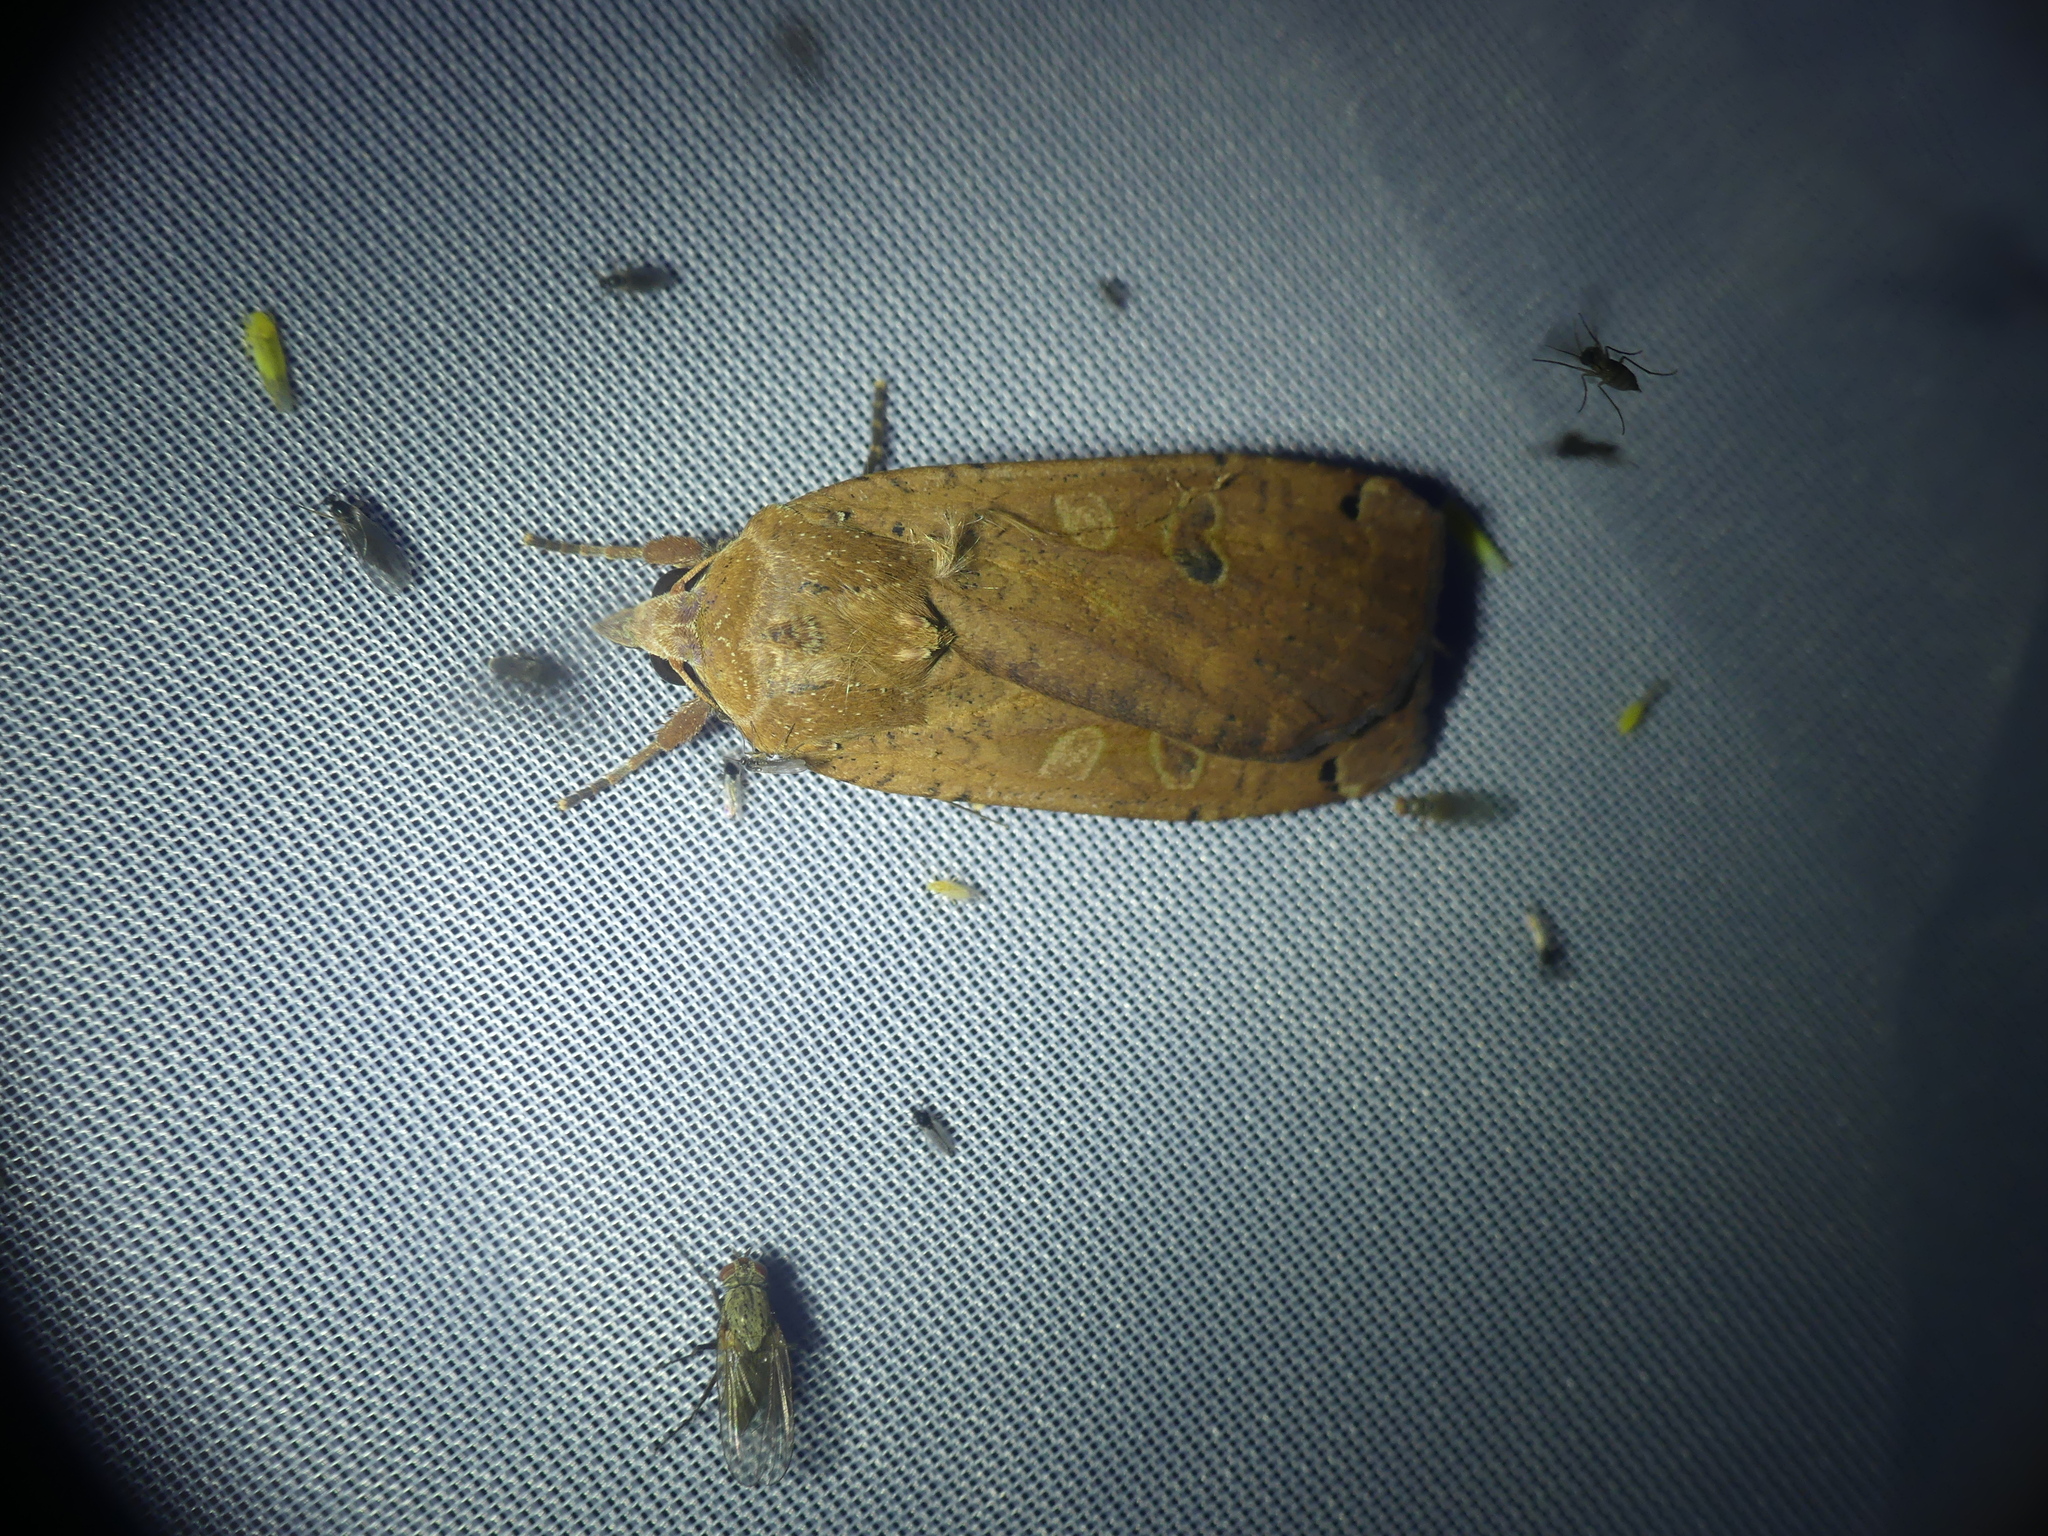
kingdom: Animalia
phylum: Arthropoda
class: Insecta
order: Lepidoptera
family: Noctuidae
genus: Noctua
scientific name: Noctua pronuba
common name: Large yellow underwing
